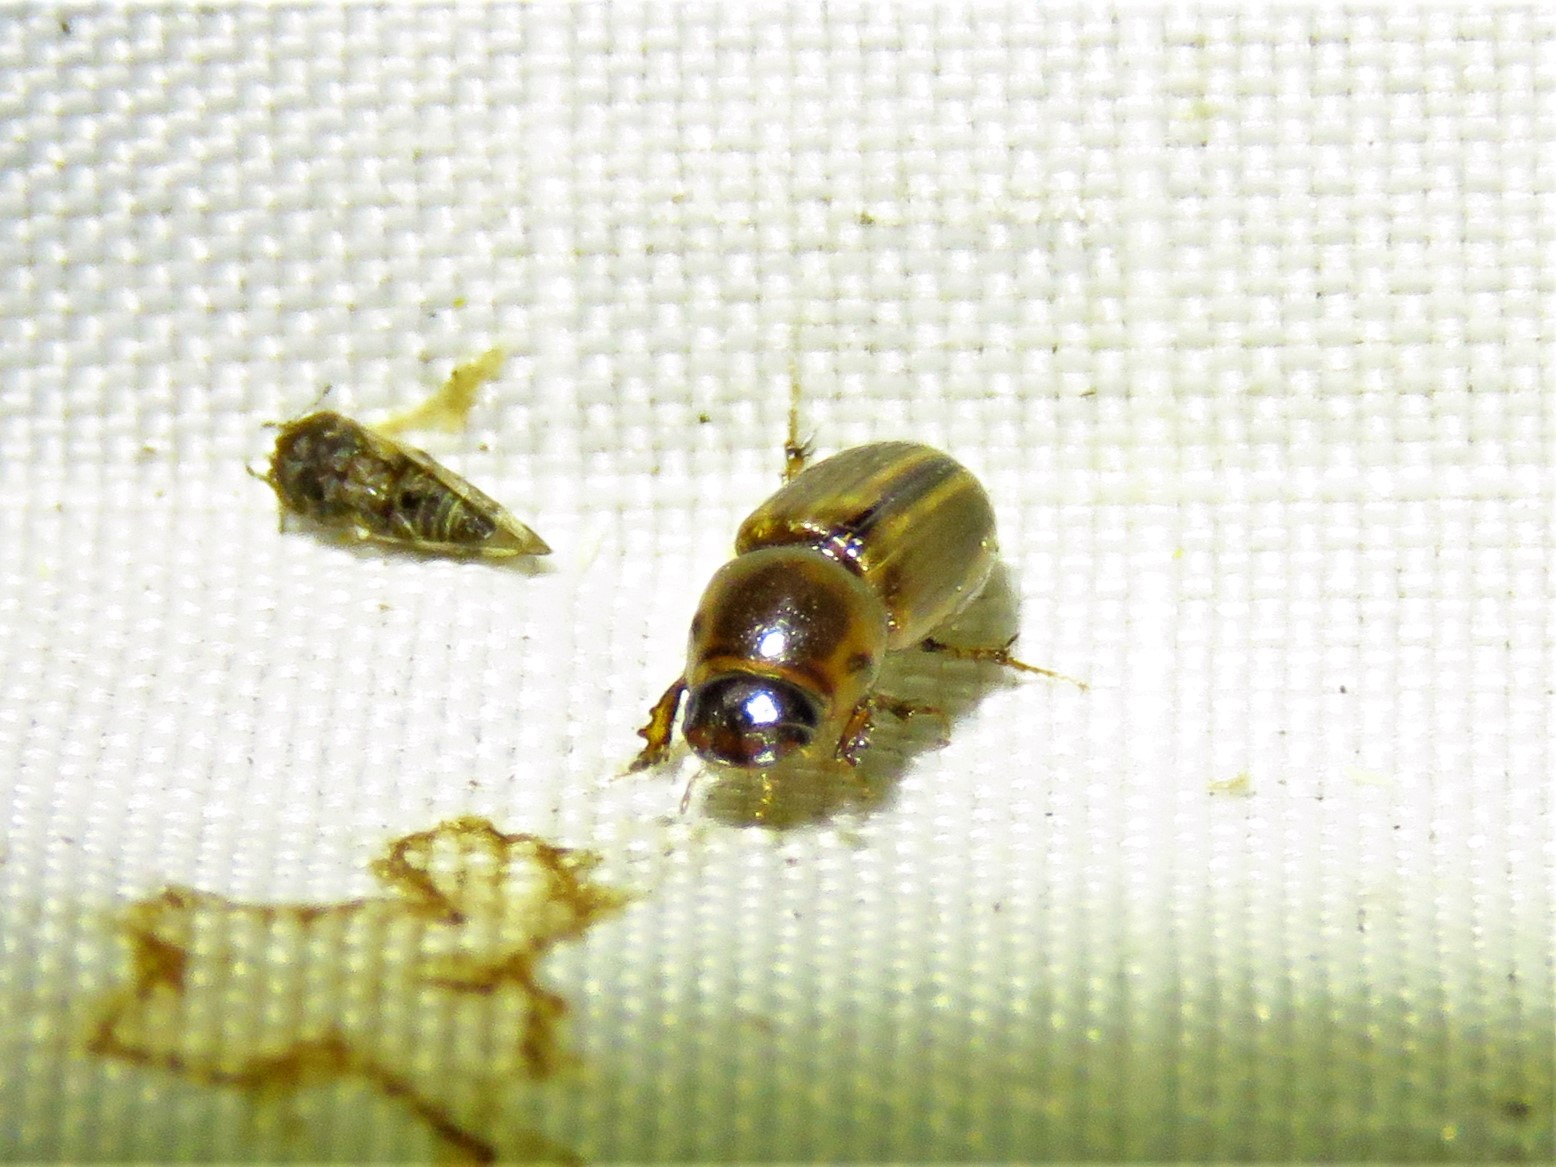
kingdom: Animalia
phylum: Arthropoda
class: Insecta
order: Coleoptera
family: Scarabaeidae
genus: Labarrus
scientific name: Labarrus lividus
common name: Scarab beetle
